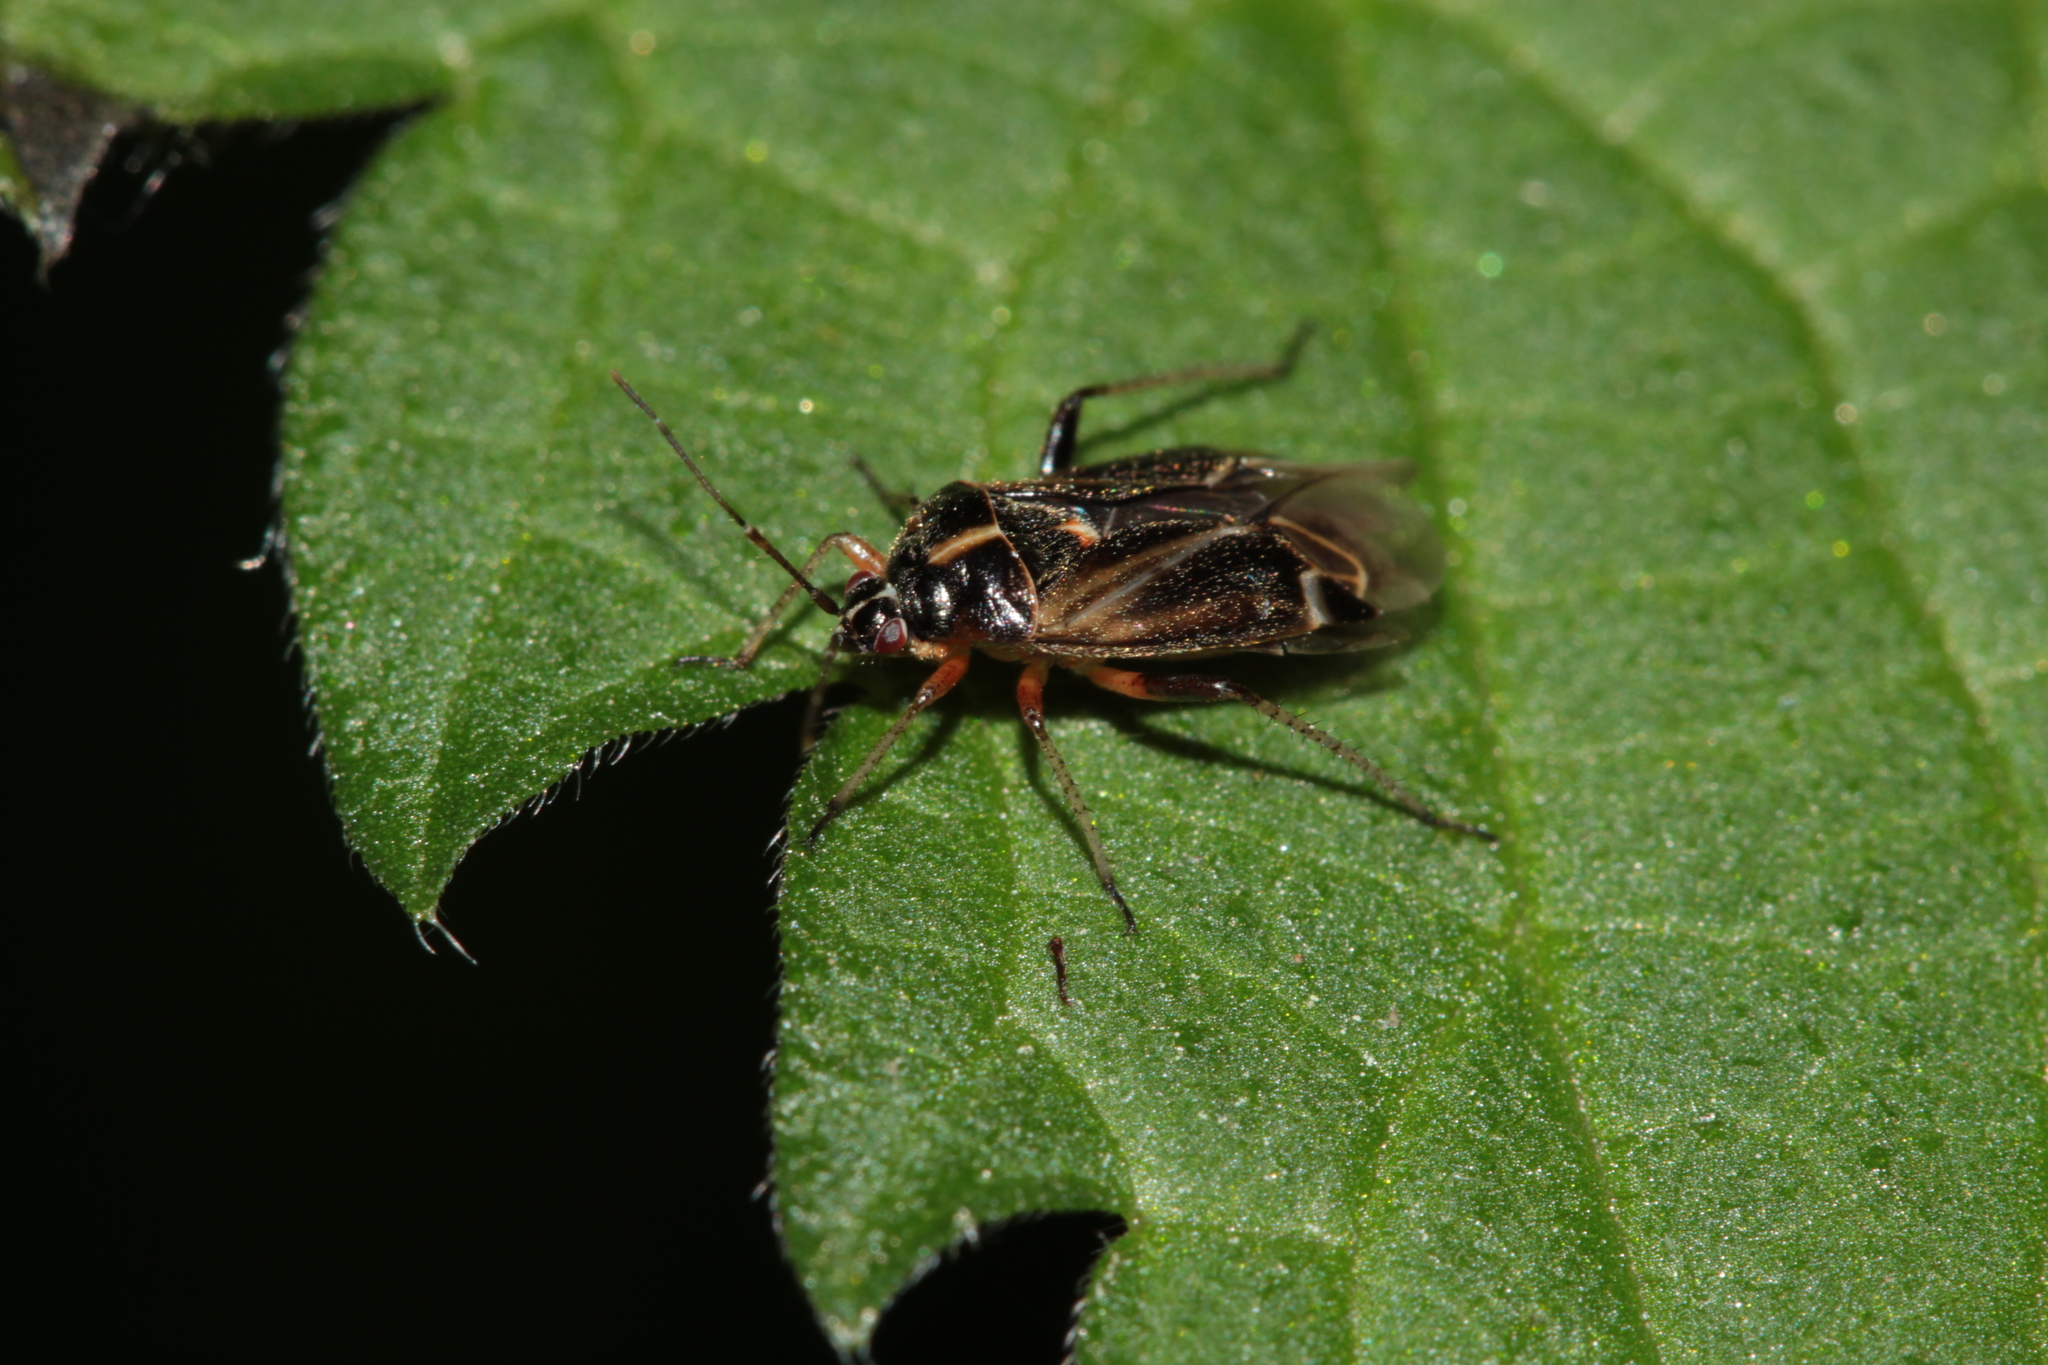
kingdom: Animalia
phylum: Arthropoda
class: Insecta
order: Hemiptera
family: Miridae
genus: Harpocera
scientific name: Harpocera thoracica
